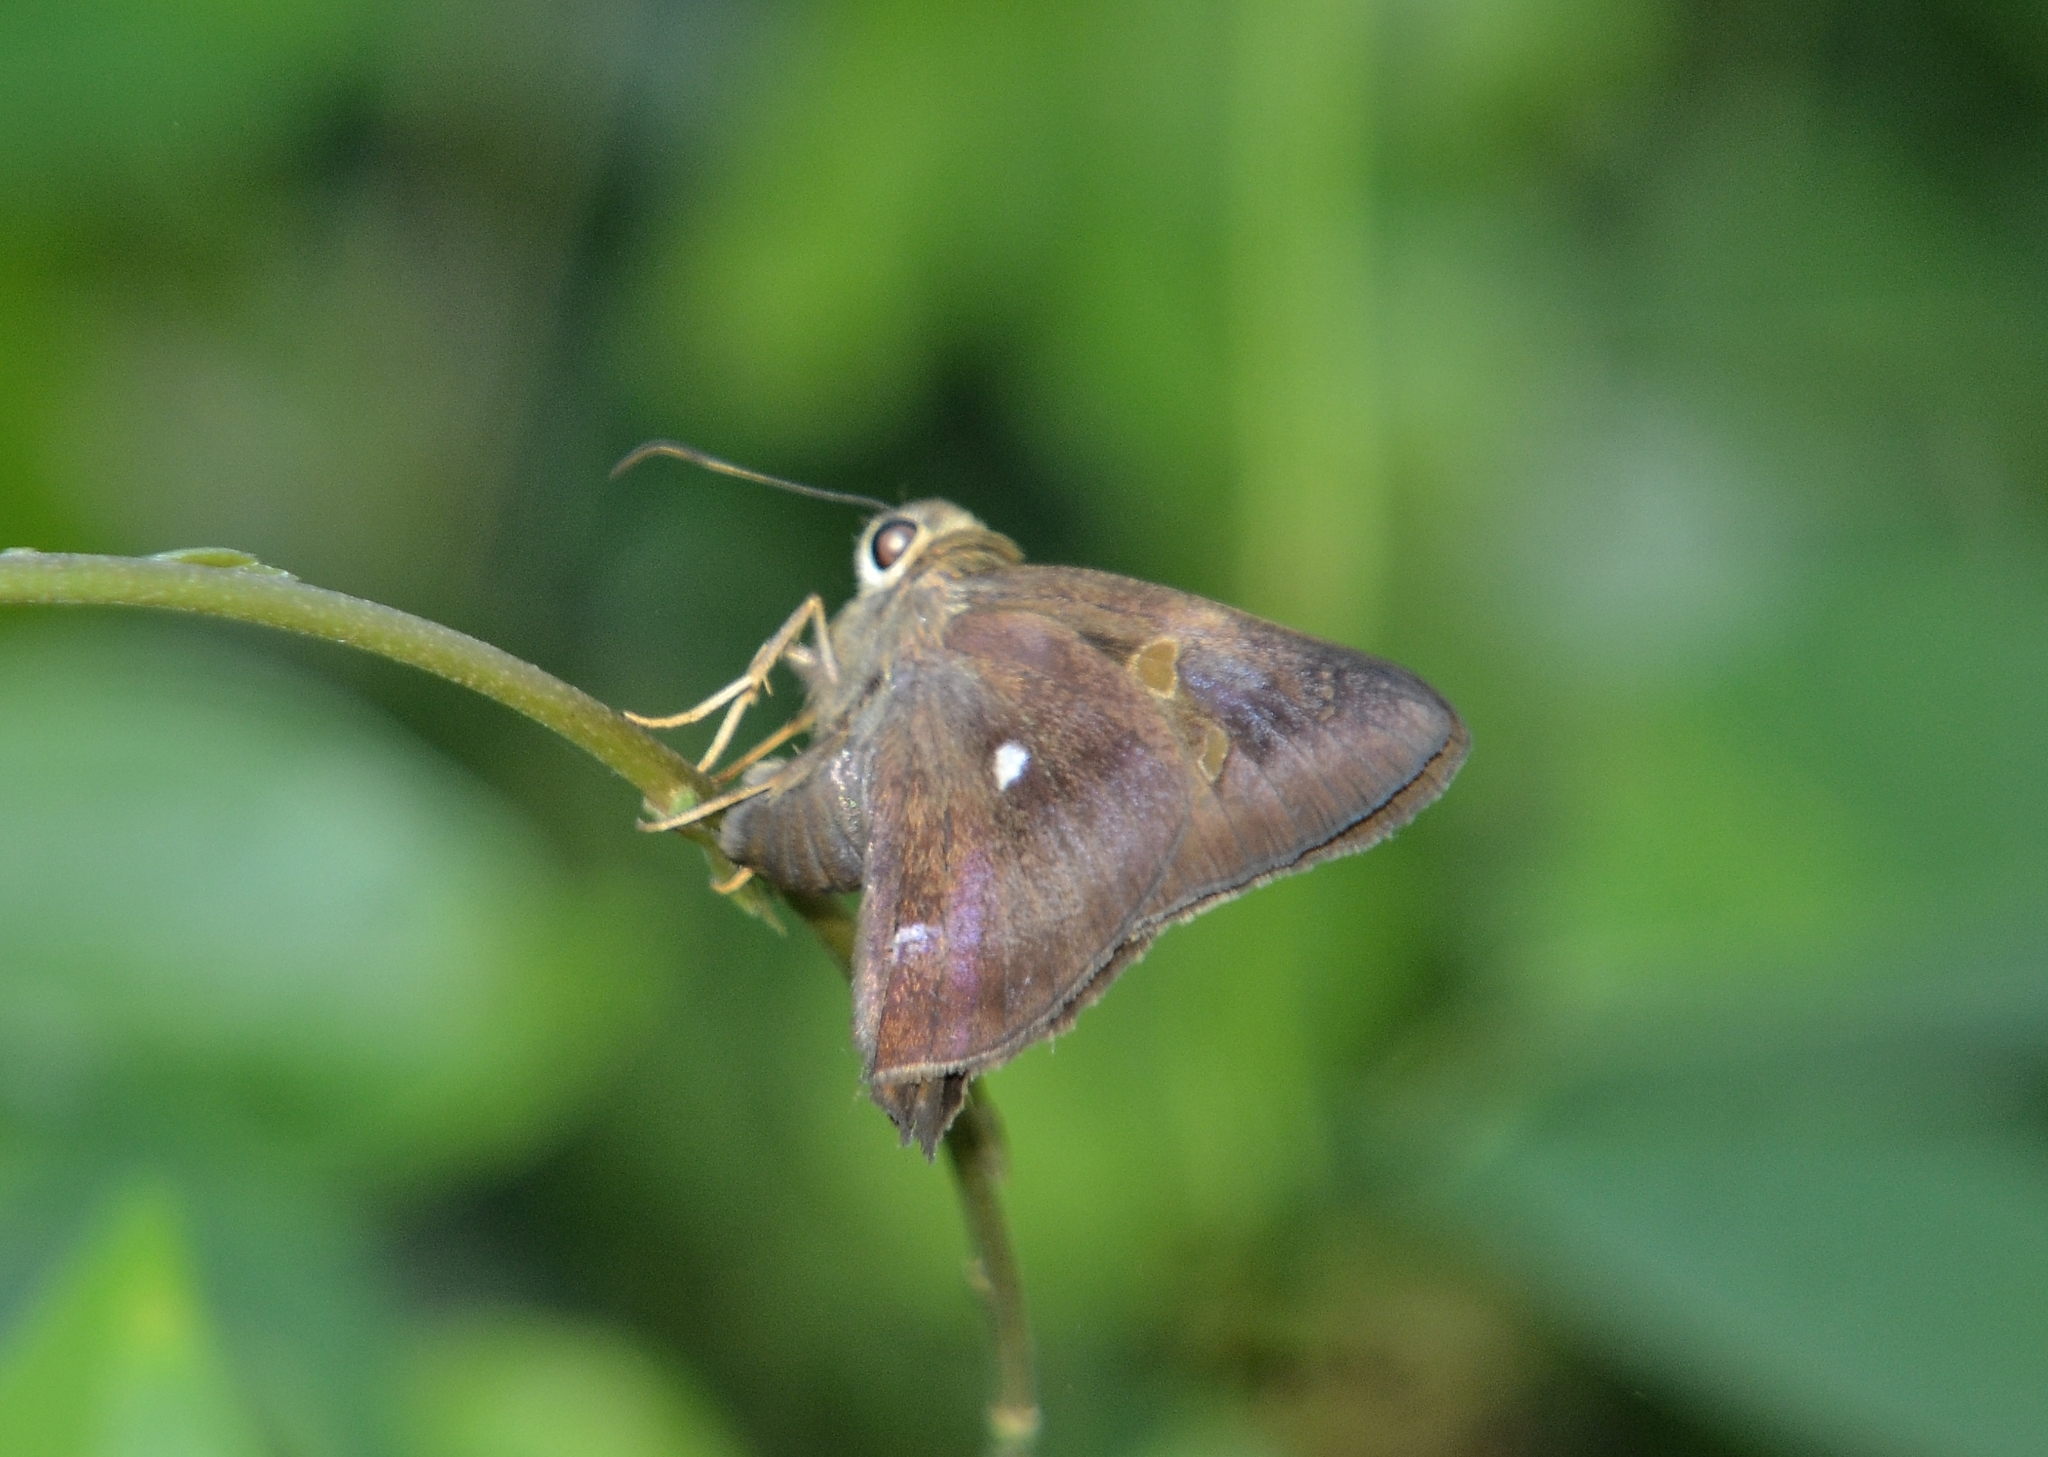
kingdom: Animalia
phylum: Arthropoda
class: Insecta
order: Lepidoptera
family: Hesperiidae
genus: Hasora
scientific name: Hasora badra
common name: Common awl
